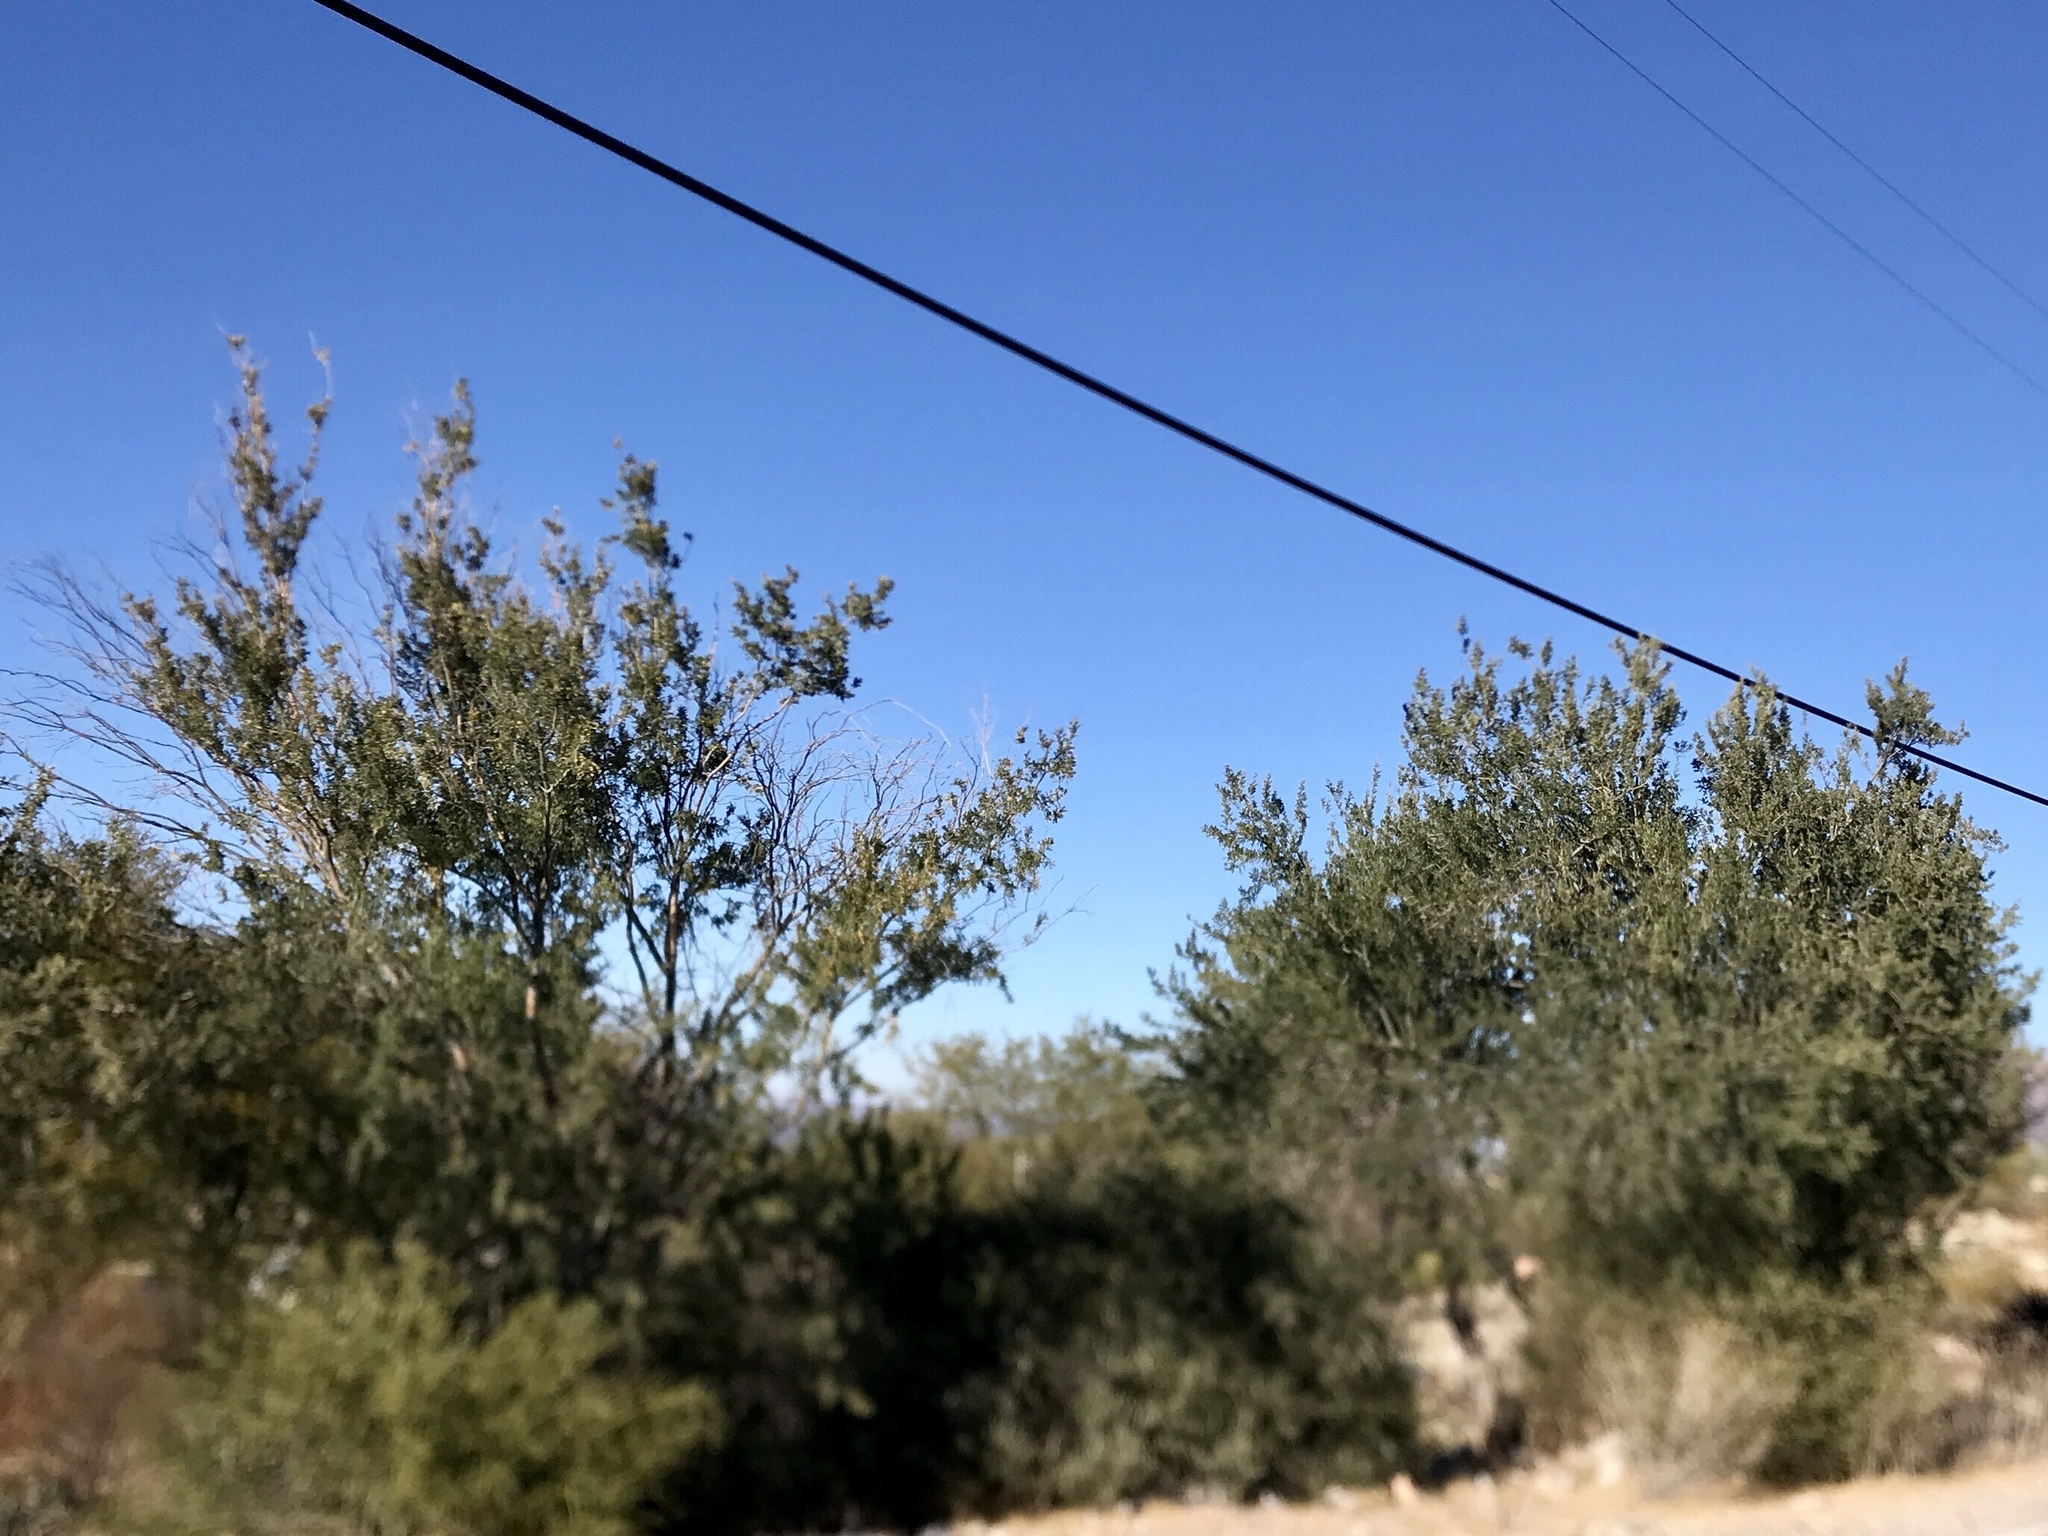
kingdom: Plantae
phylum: Tracheophyta
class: Magnoliopsida
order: Fabales
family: Fabaceae
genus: Olneya
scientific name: Olneya tesota
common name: Desert ironwood
